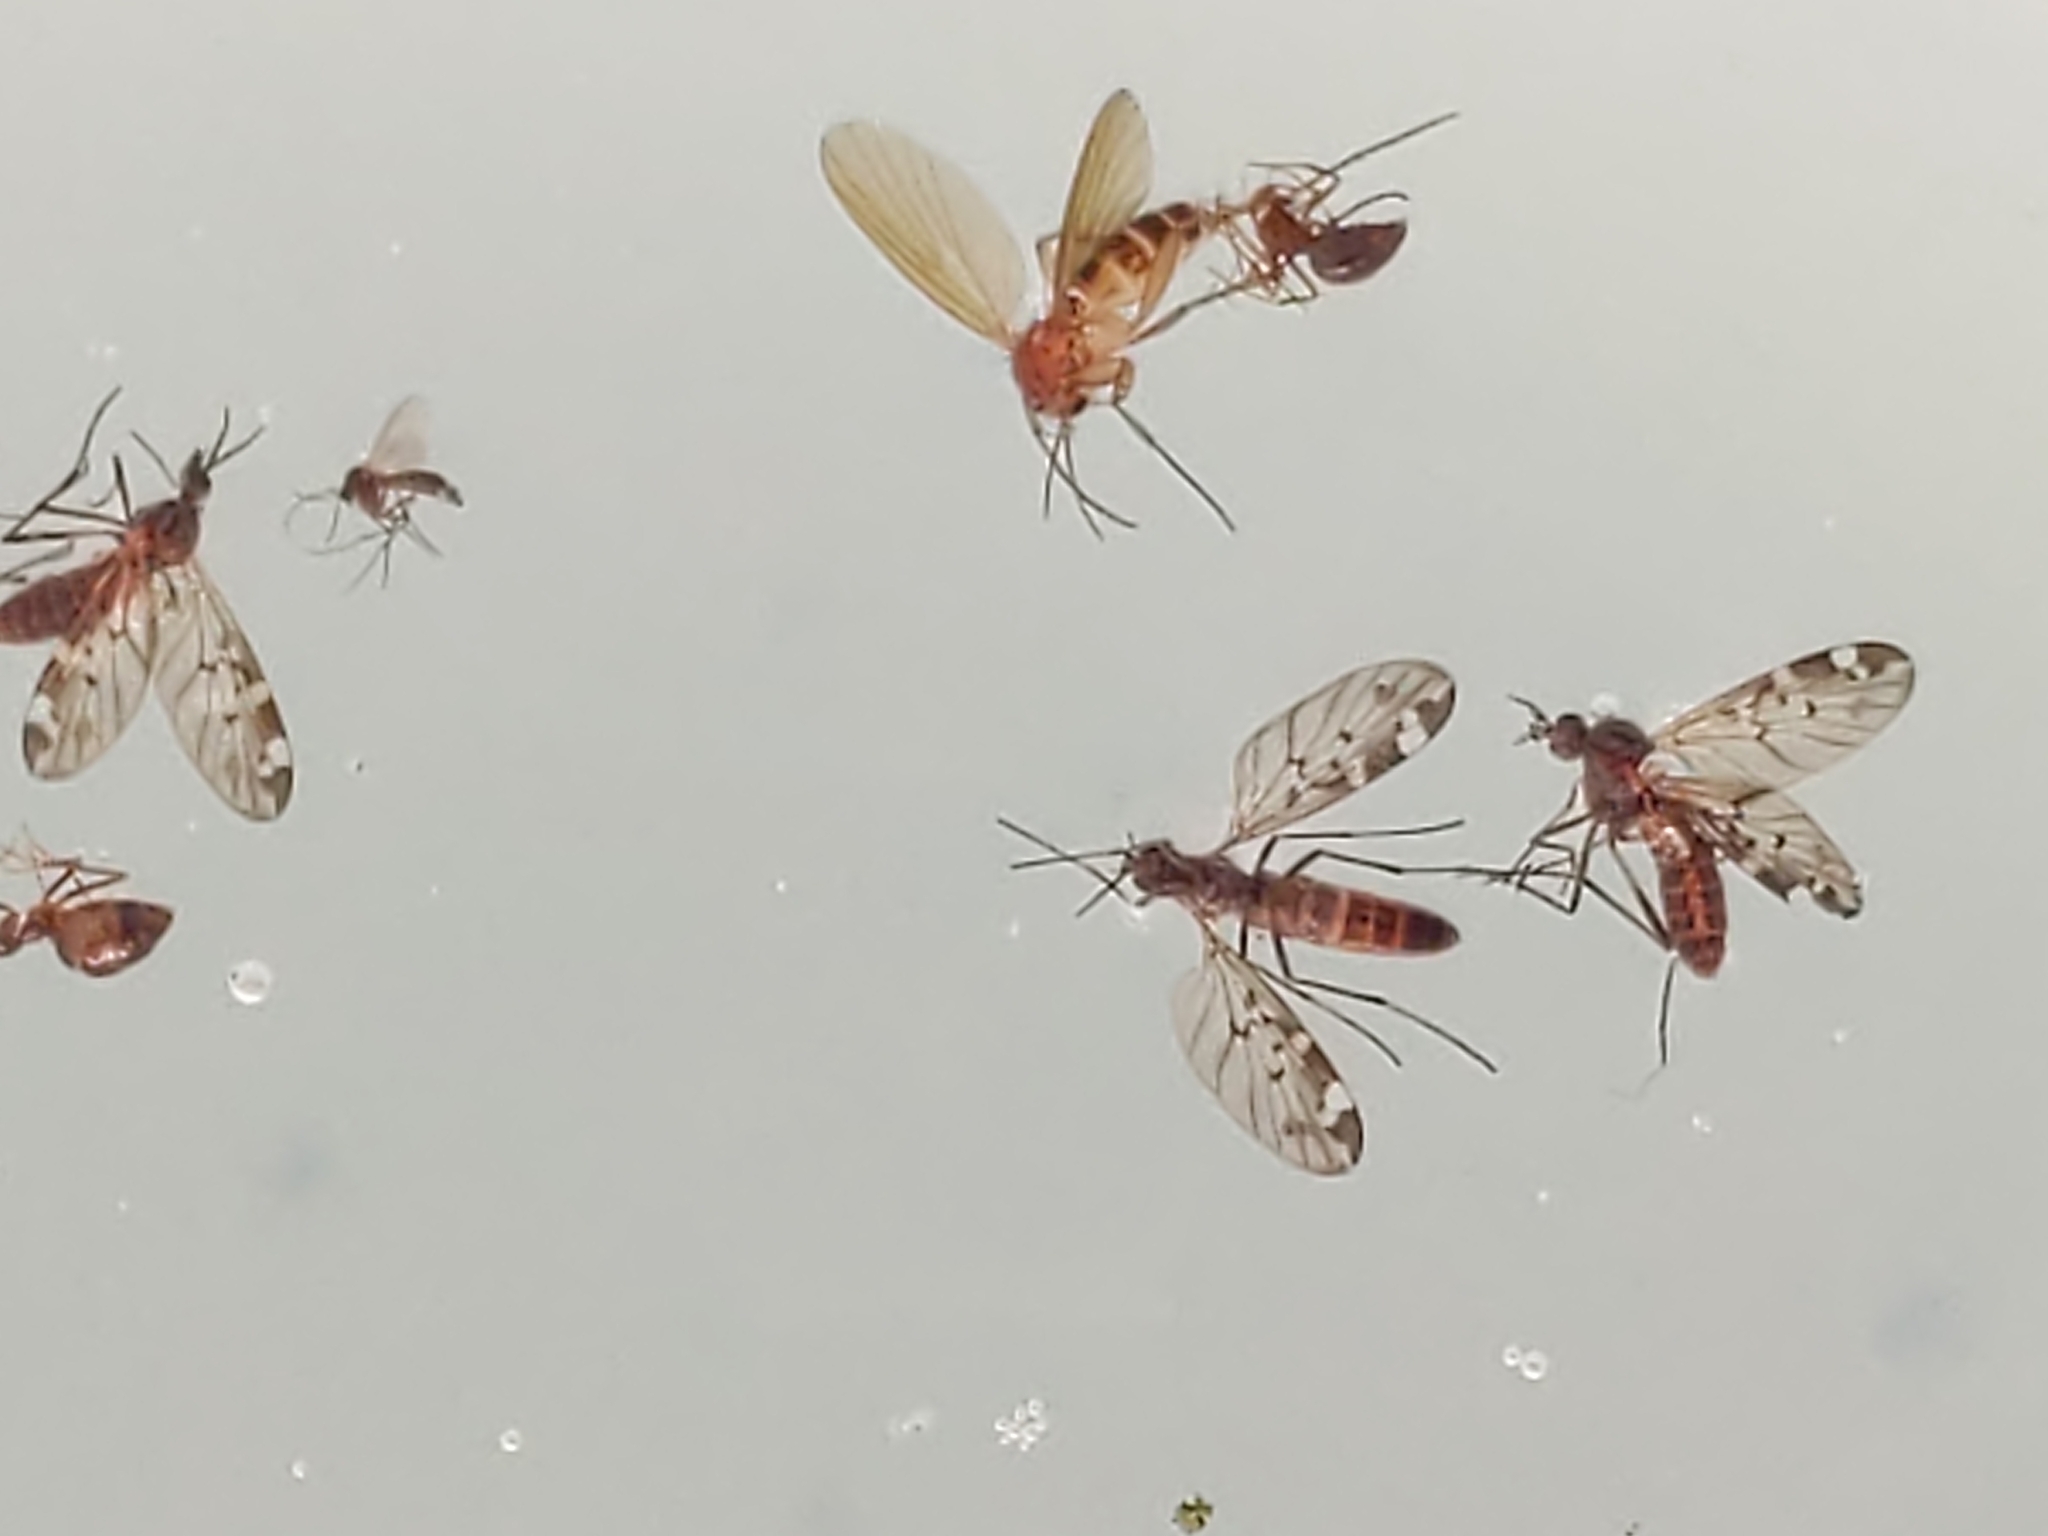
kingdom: Animalia
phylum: Arthropoda
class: Insecta
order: Diptera
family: Anisopodidae
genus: Sylvicola
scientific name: Sylvicola alternata
